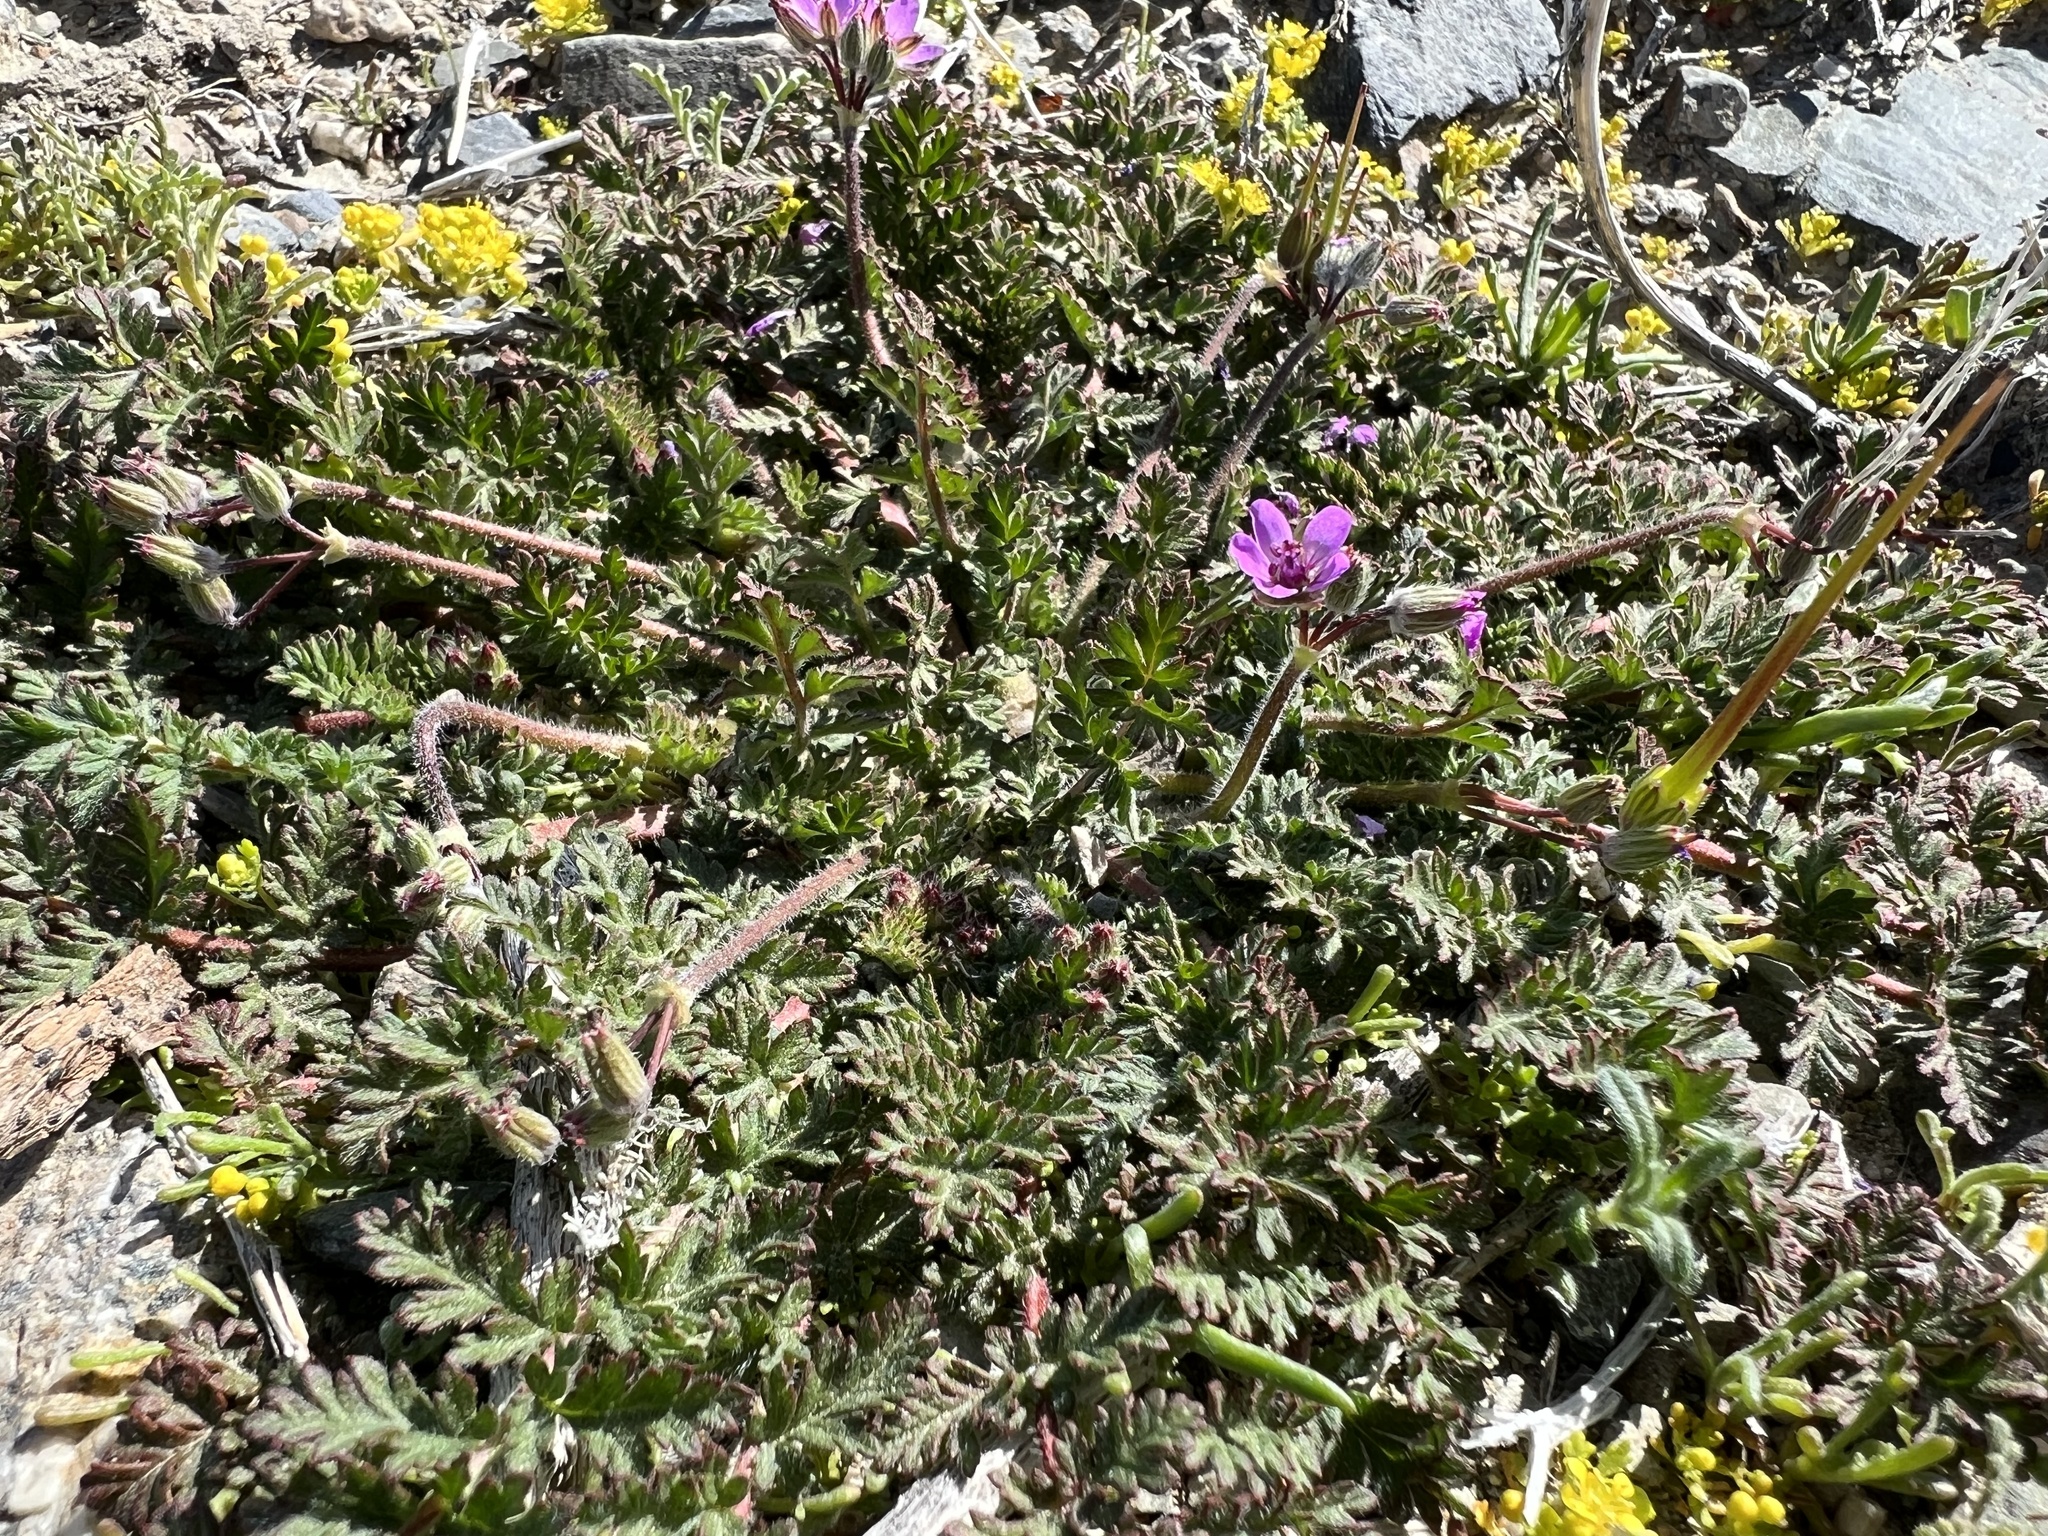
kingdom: Plantae
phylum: Tracheophyta
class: Magnoliopsida
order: Geraniales
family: Geraniaceae
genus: Erodium
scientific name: Erodium cicutarium
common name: Common stork's-bill
